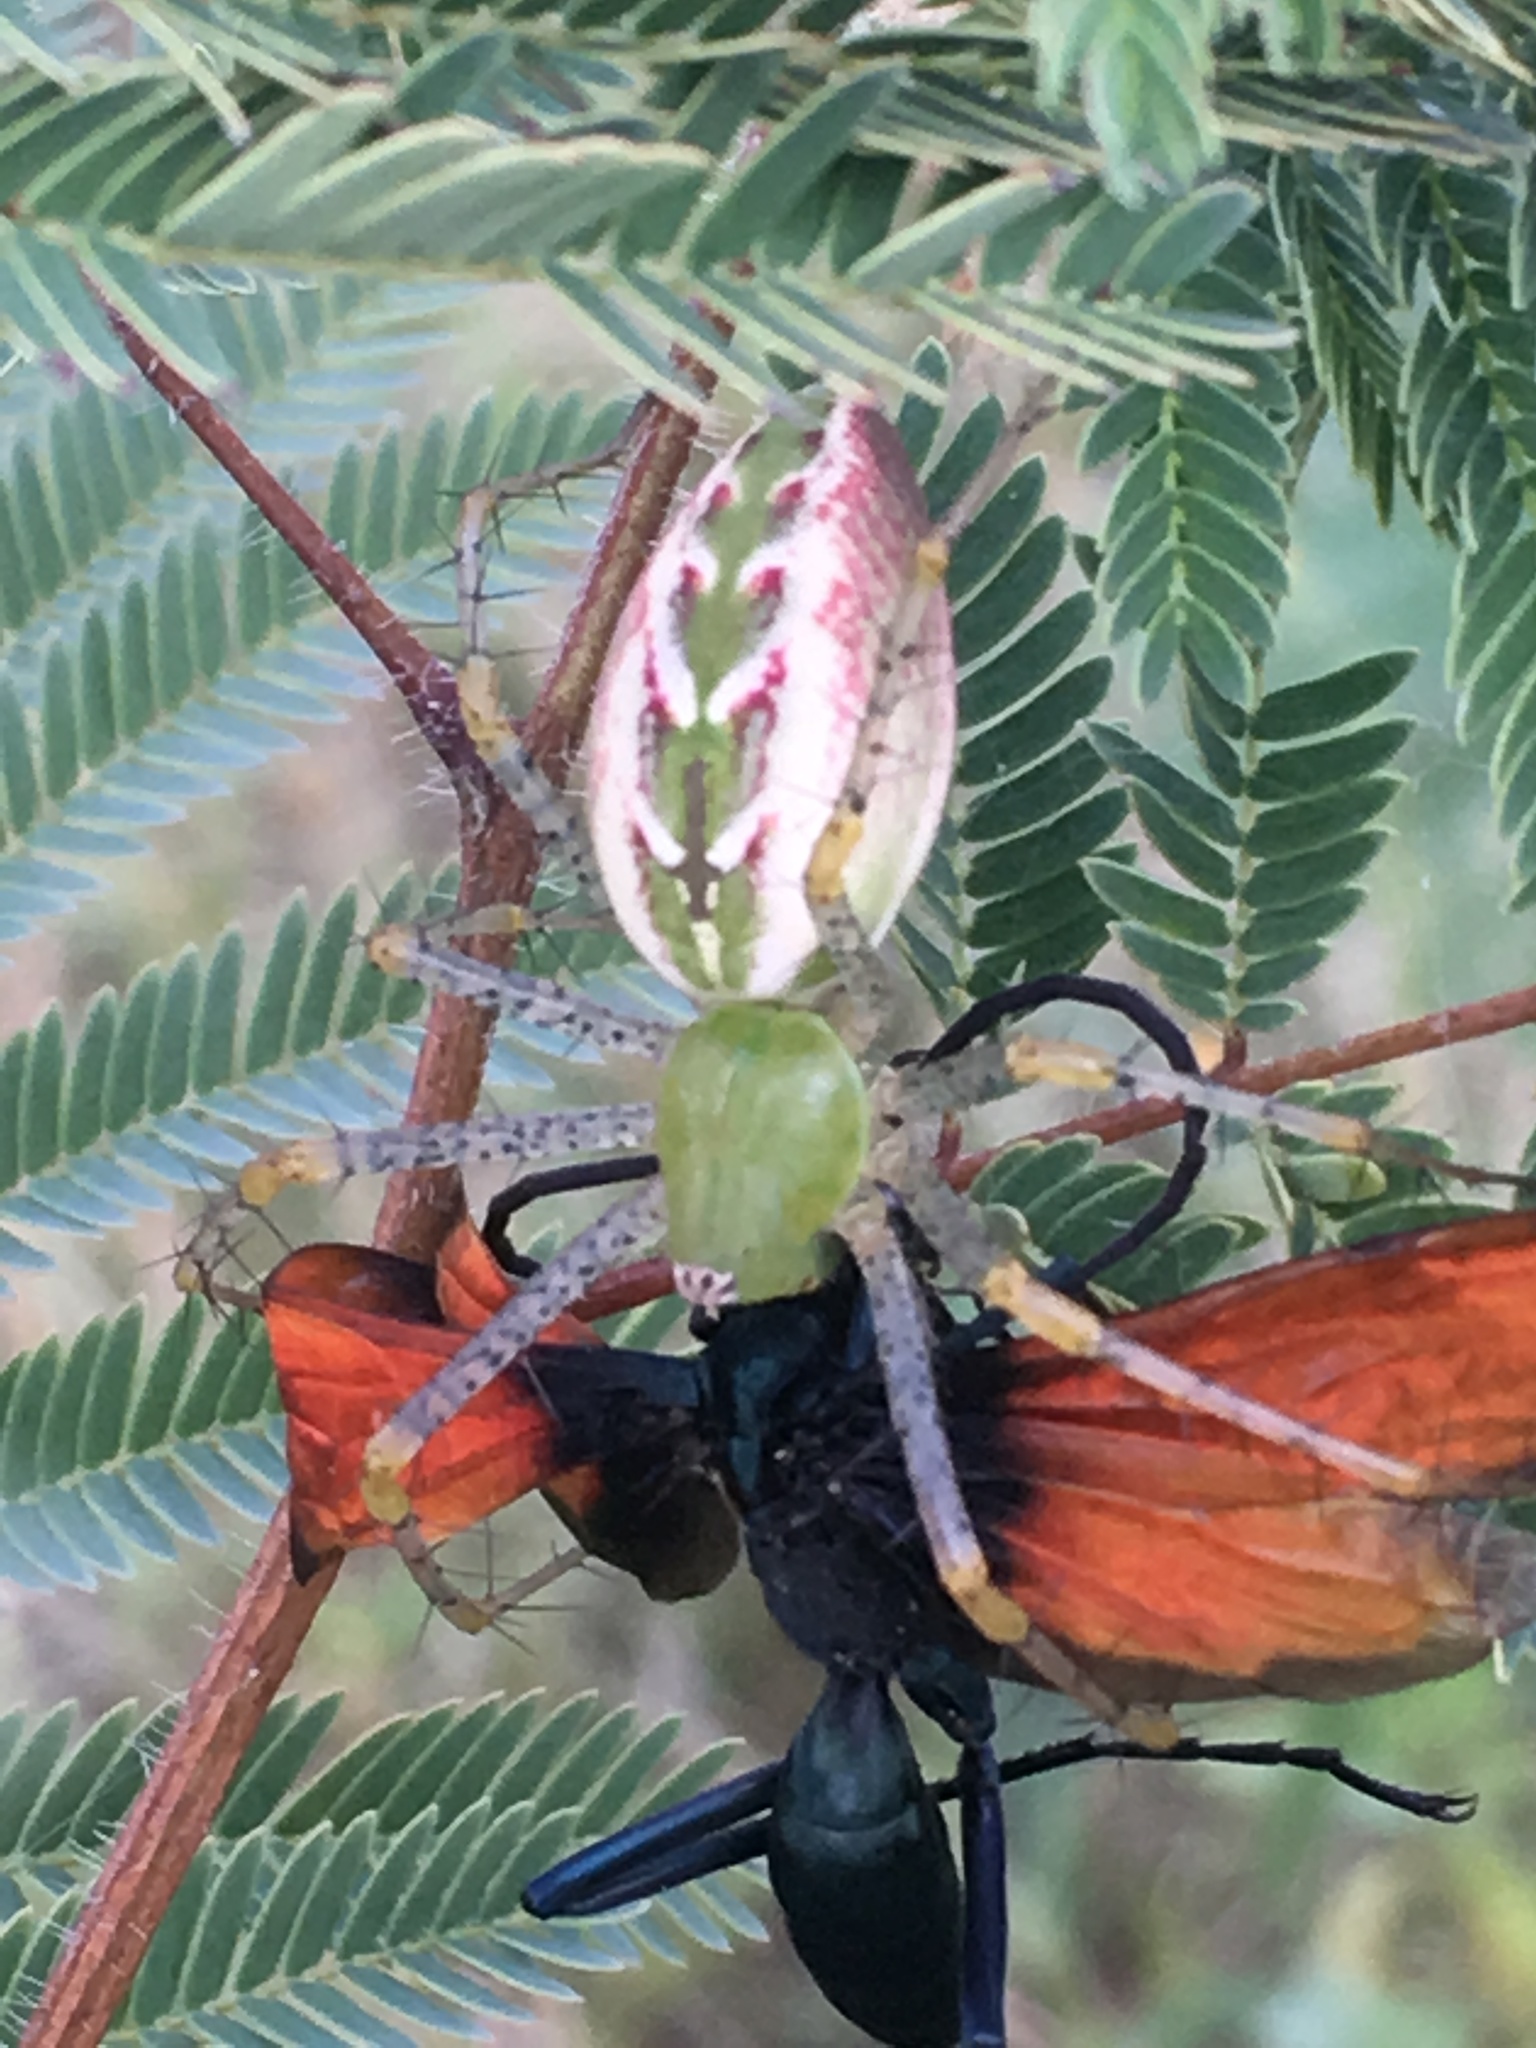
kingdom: Animalia
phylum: Arthropoda
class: Arachnida
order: Araneae
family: Oxyopidae
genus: Peucetia
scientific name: Peucetia viridans
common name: Lynx spiders
